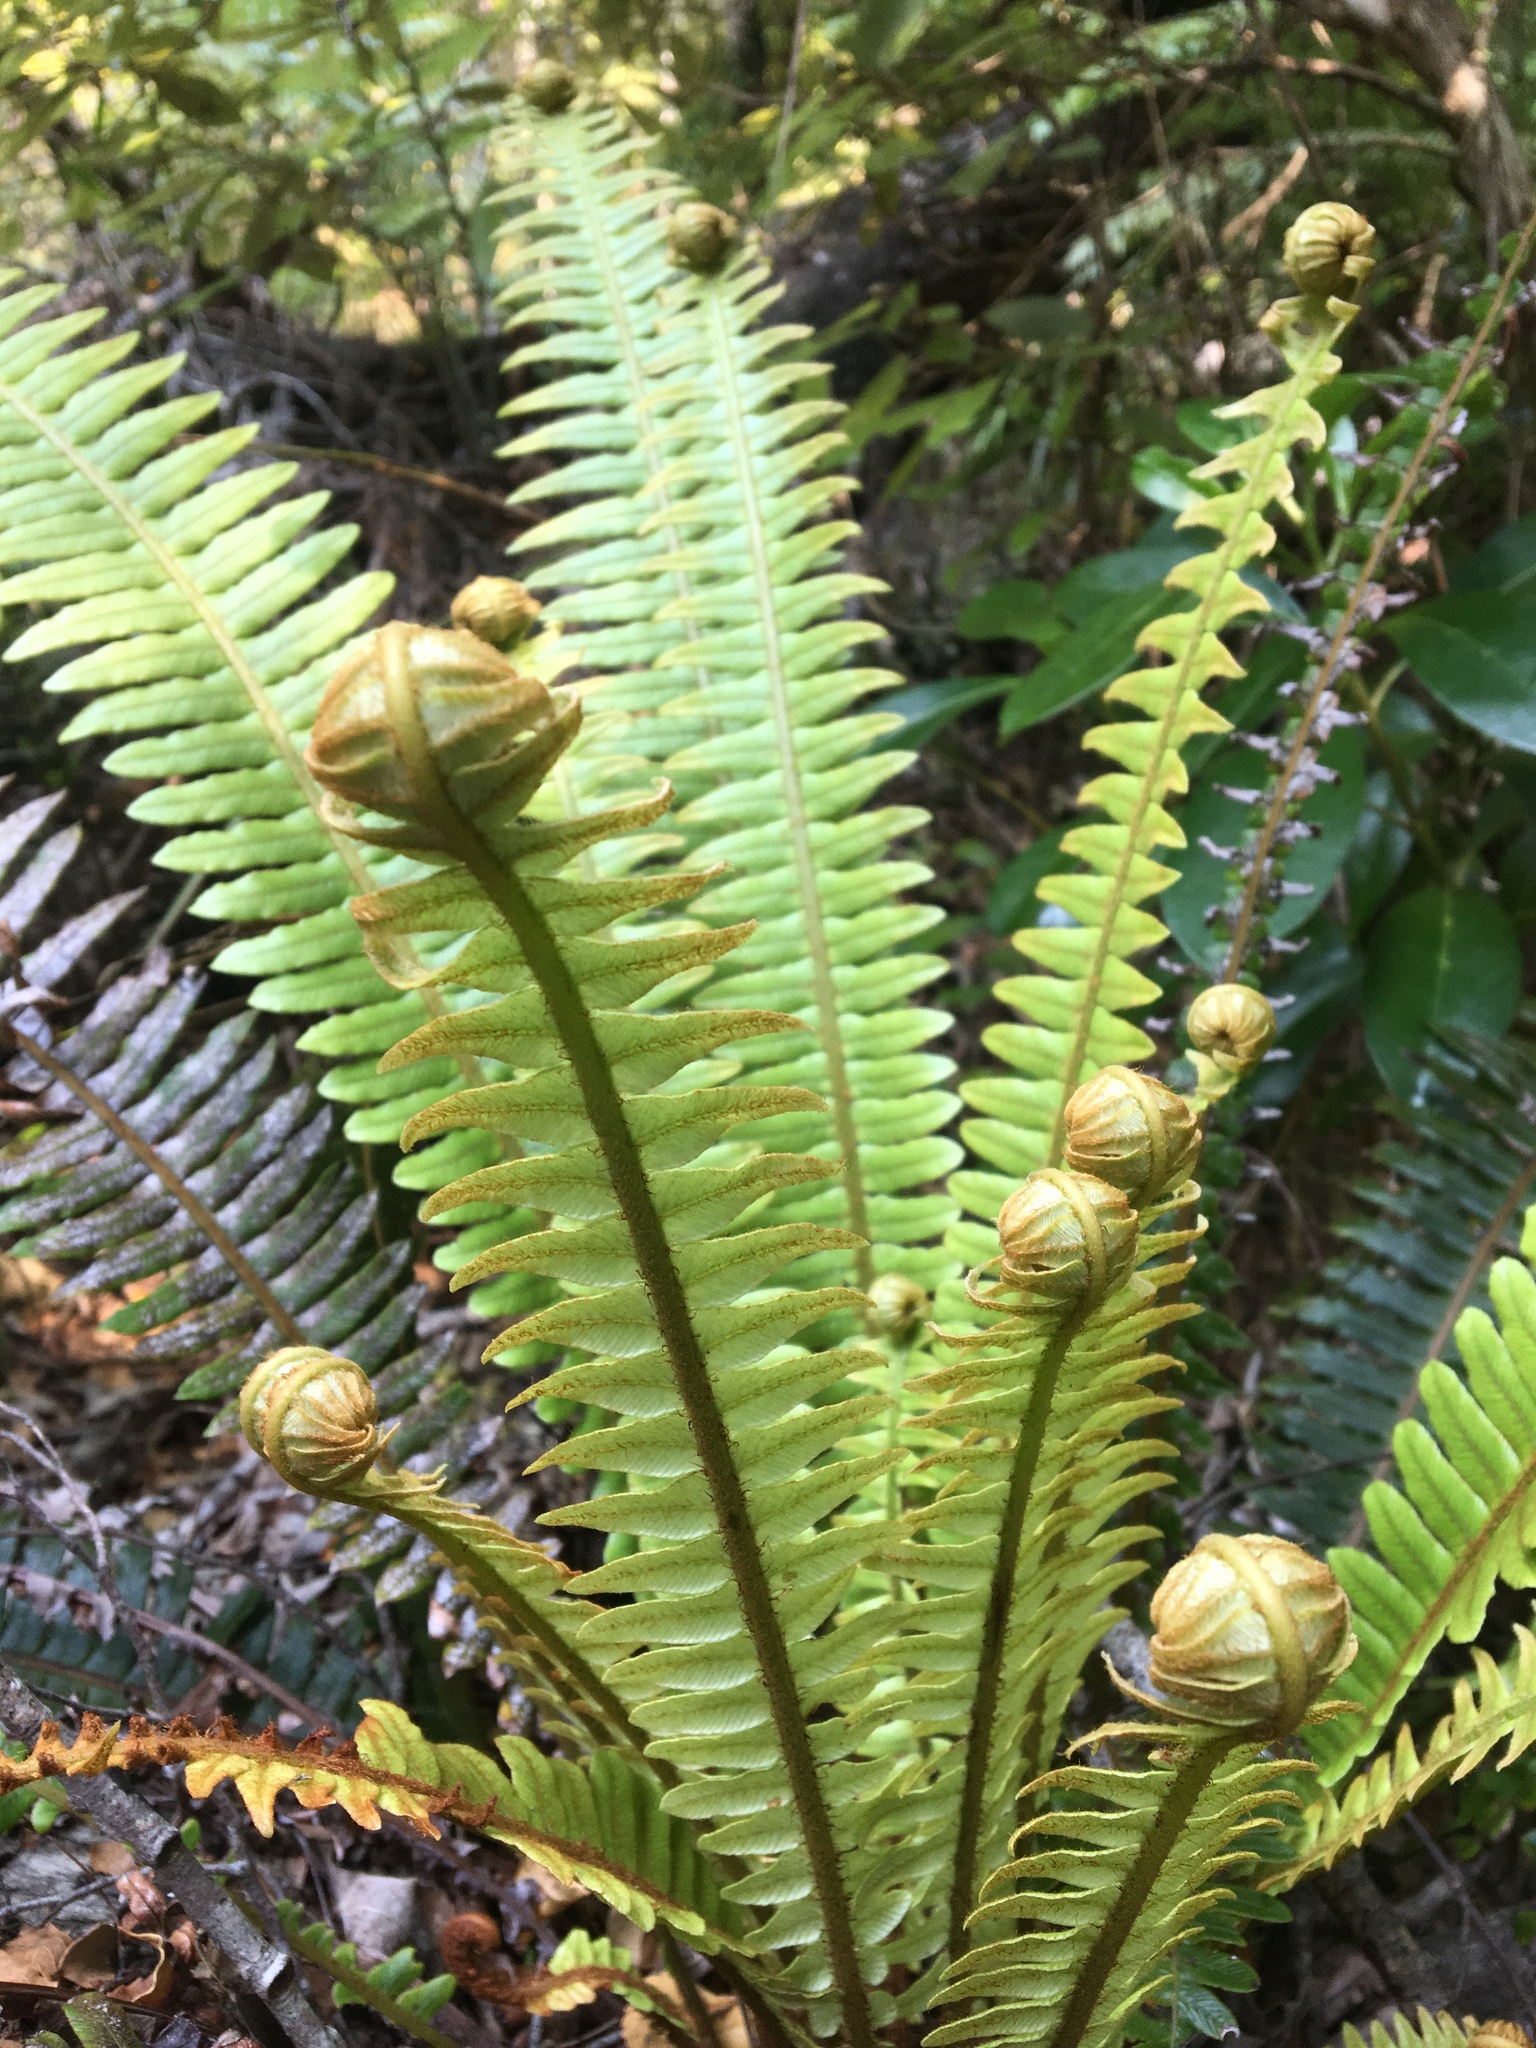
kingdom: Plantae
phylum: Tracheophyta
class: Polypodiopsida
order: Polypodiales
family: Blechnaceae
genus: Lomaria
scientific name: Lomaria discolor
